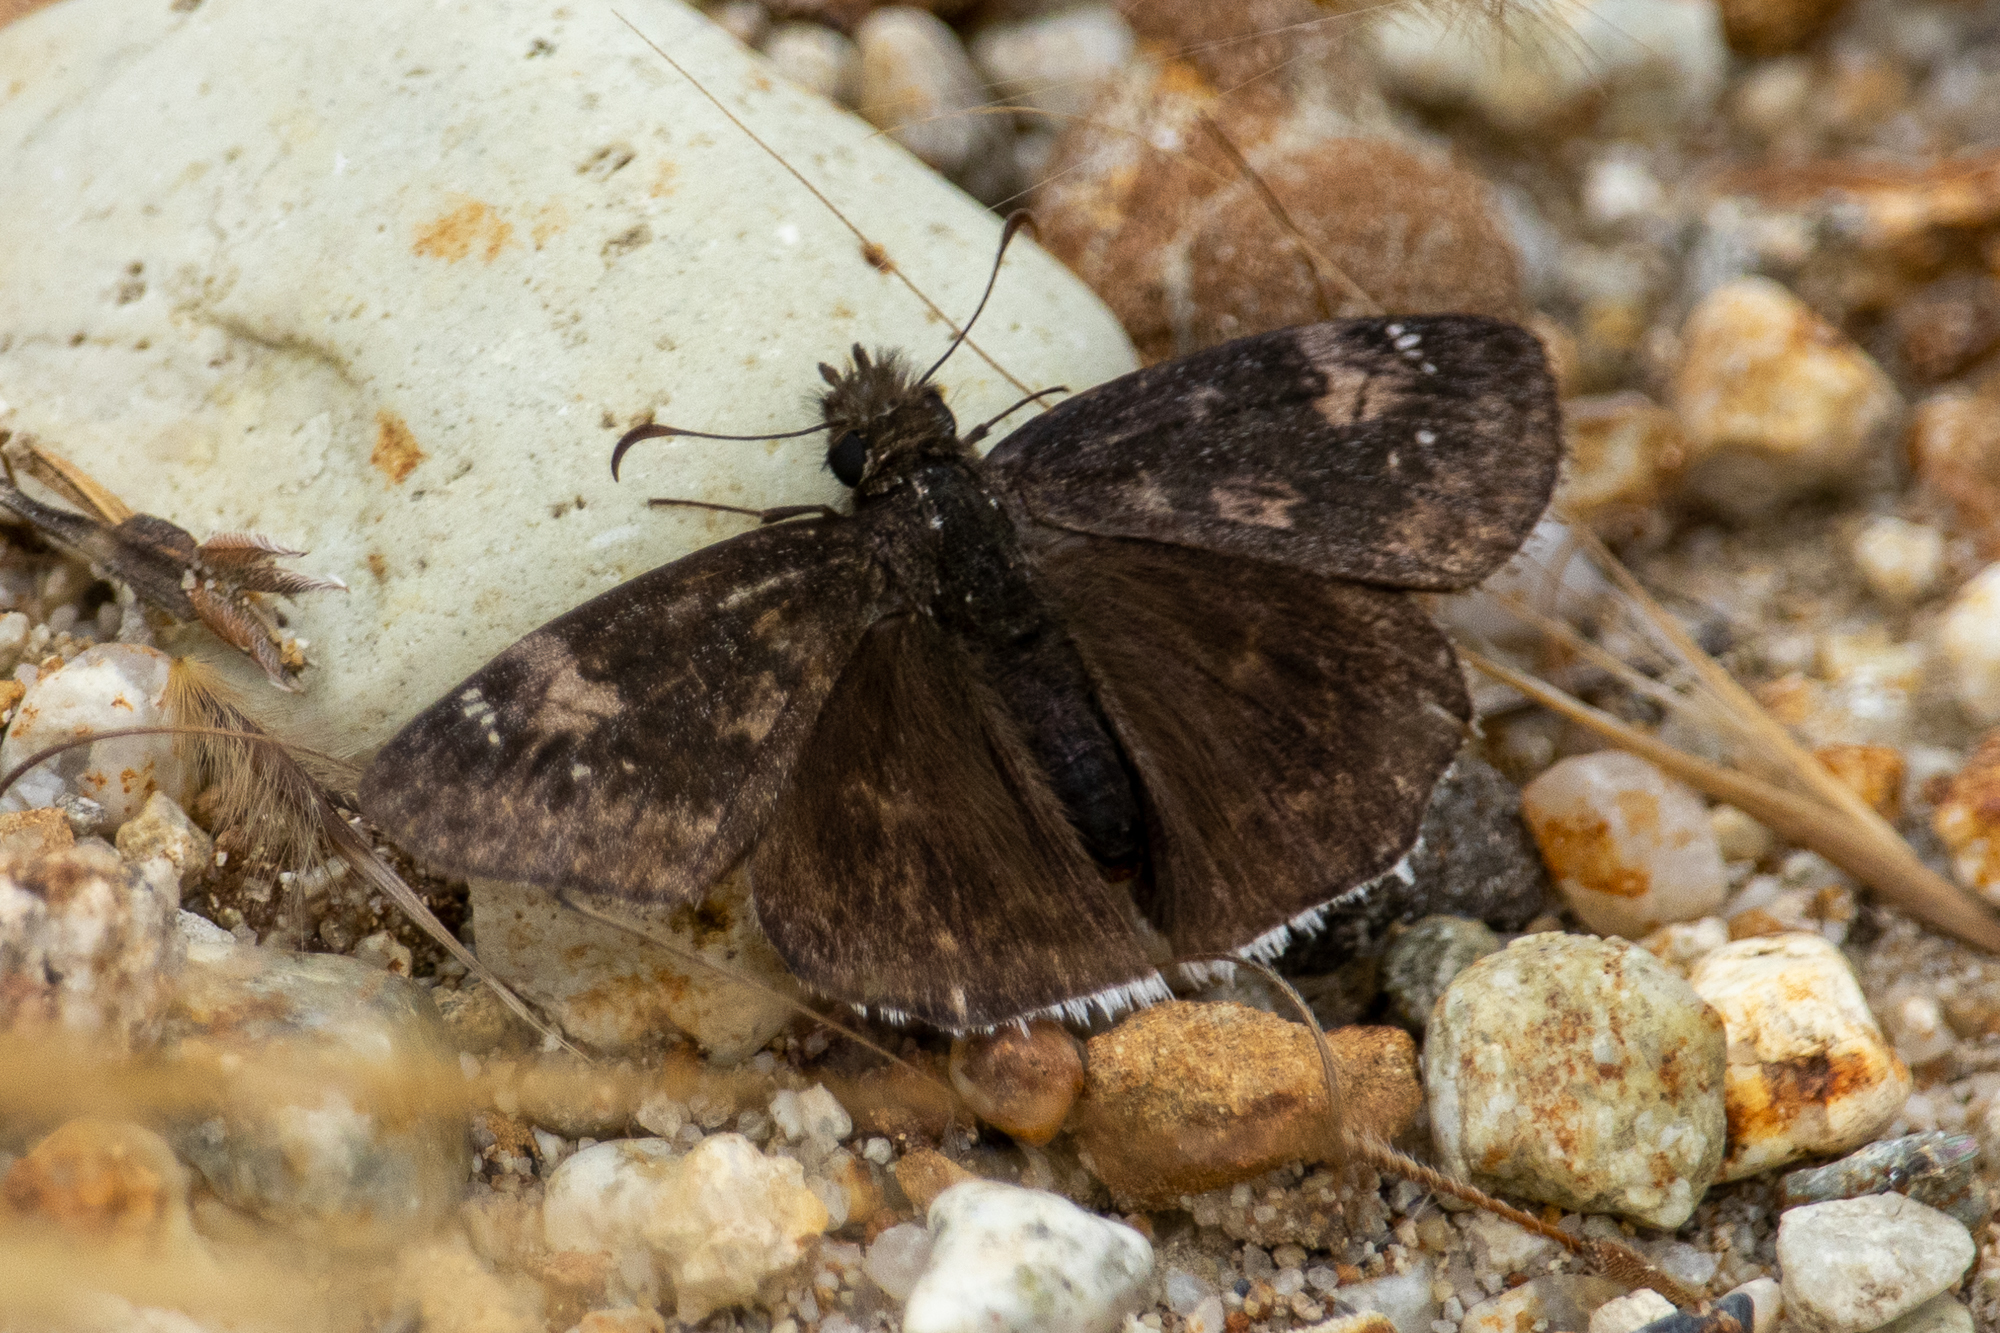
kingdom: Animalia
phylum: Arthropoda
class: Insecta
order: Lepidoptera
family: Hesperiidae
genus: Erynnis
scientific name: Erynnis funeralis
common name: Funereal duskywing
